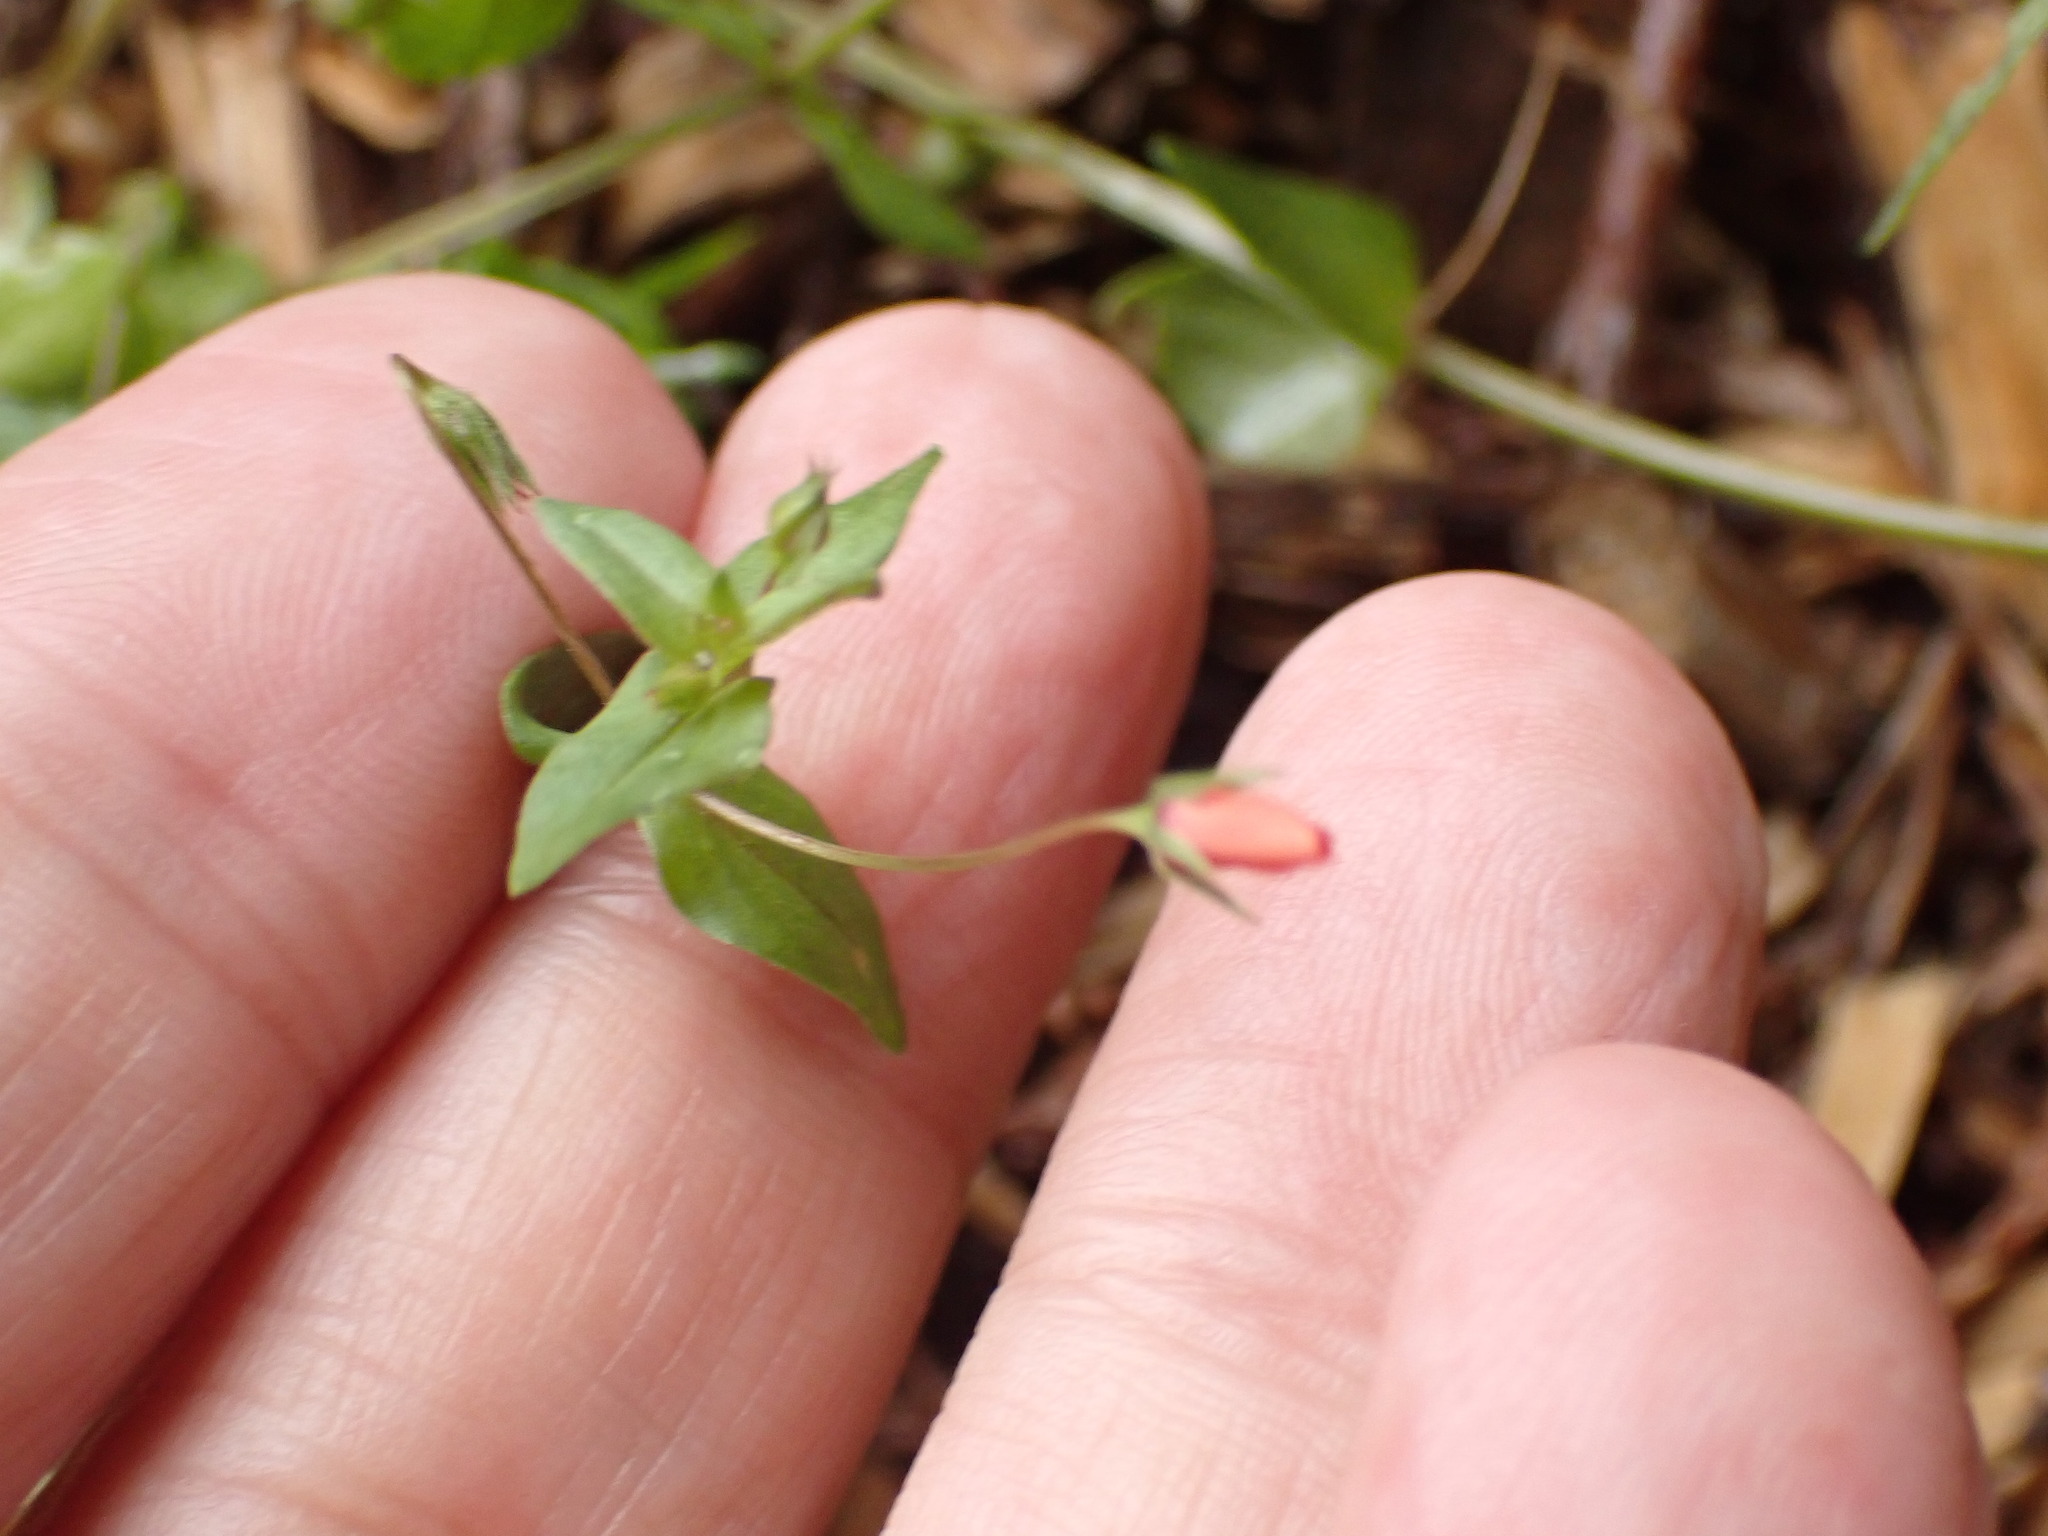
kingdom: Plantae
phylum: Tracheophyta
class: Magnoliopsida
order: Ericales
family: Primulaceae
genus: Lysimachia
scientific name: Lysimachia arvensis
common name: Scarlet pimpernel
